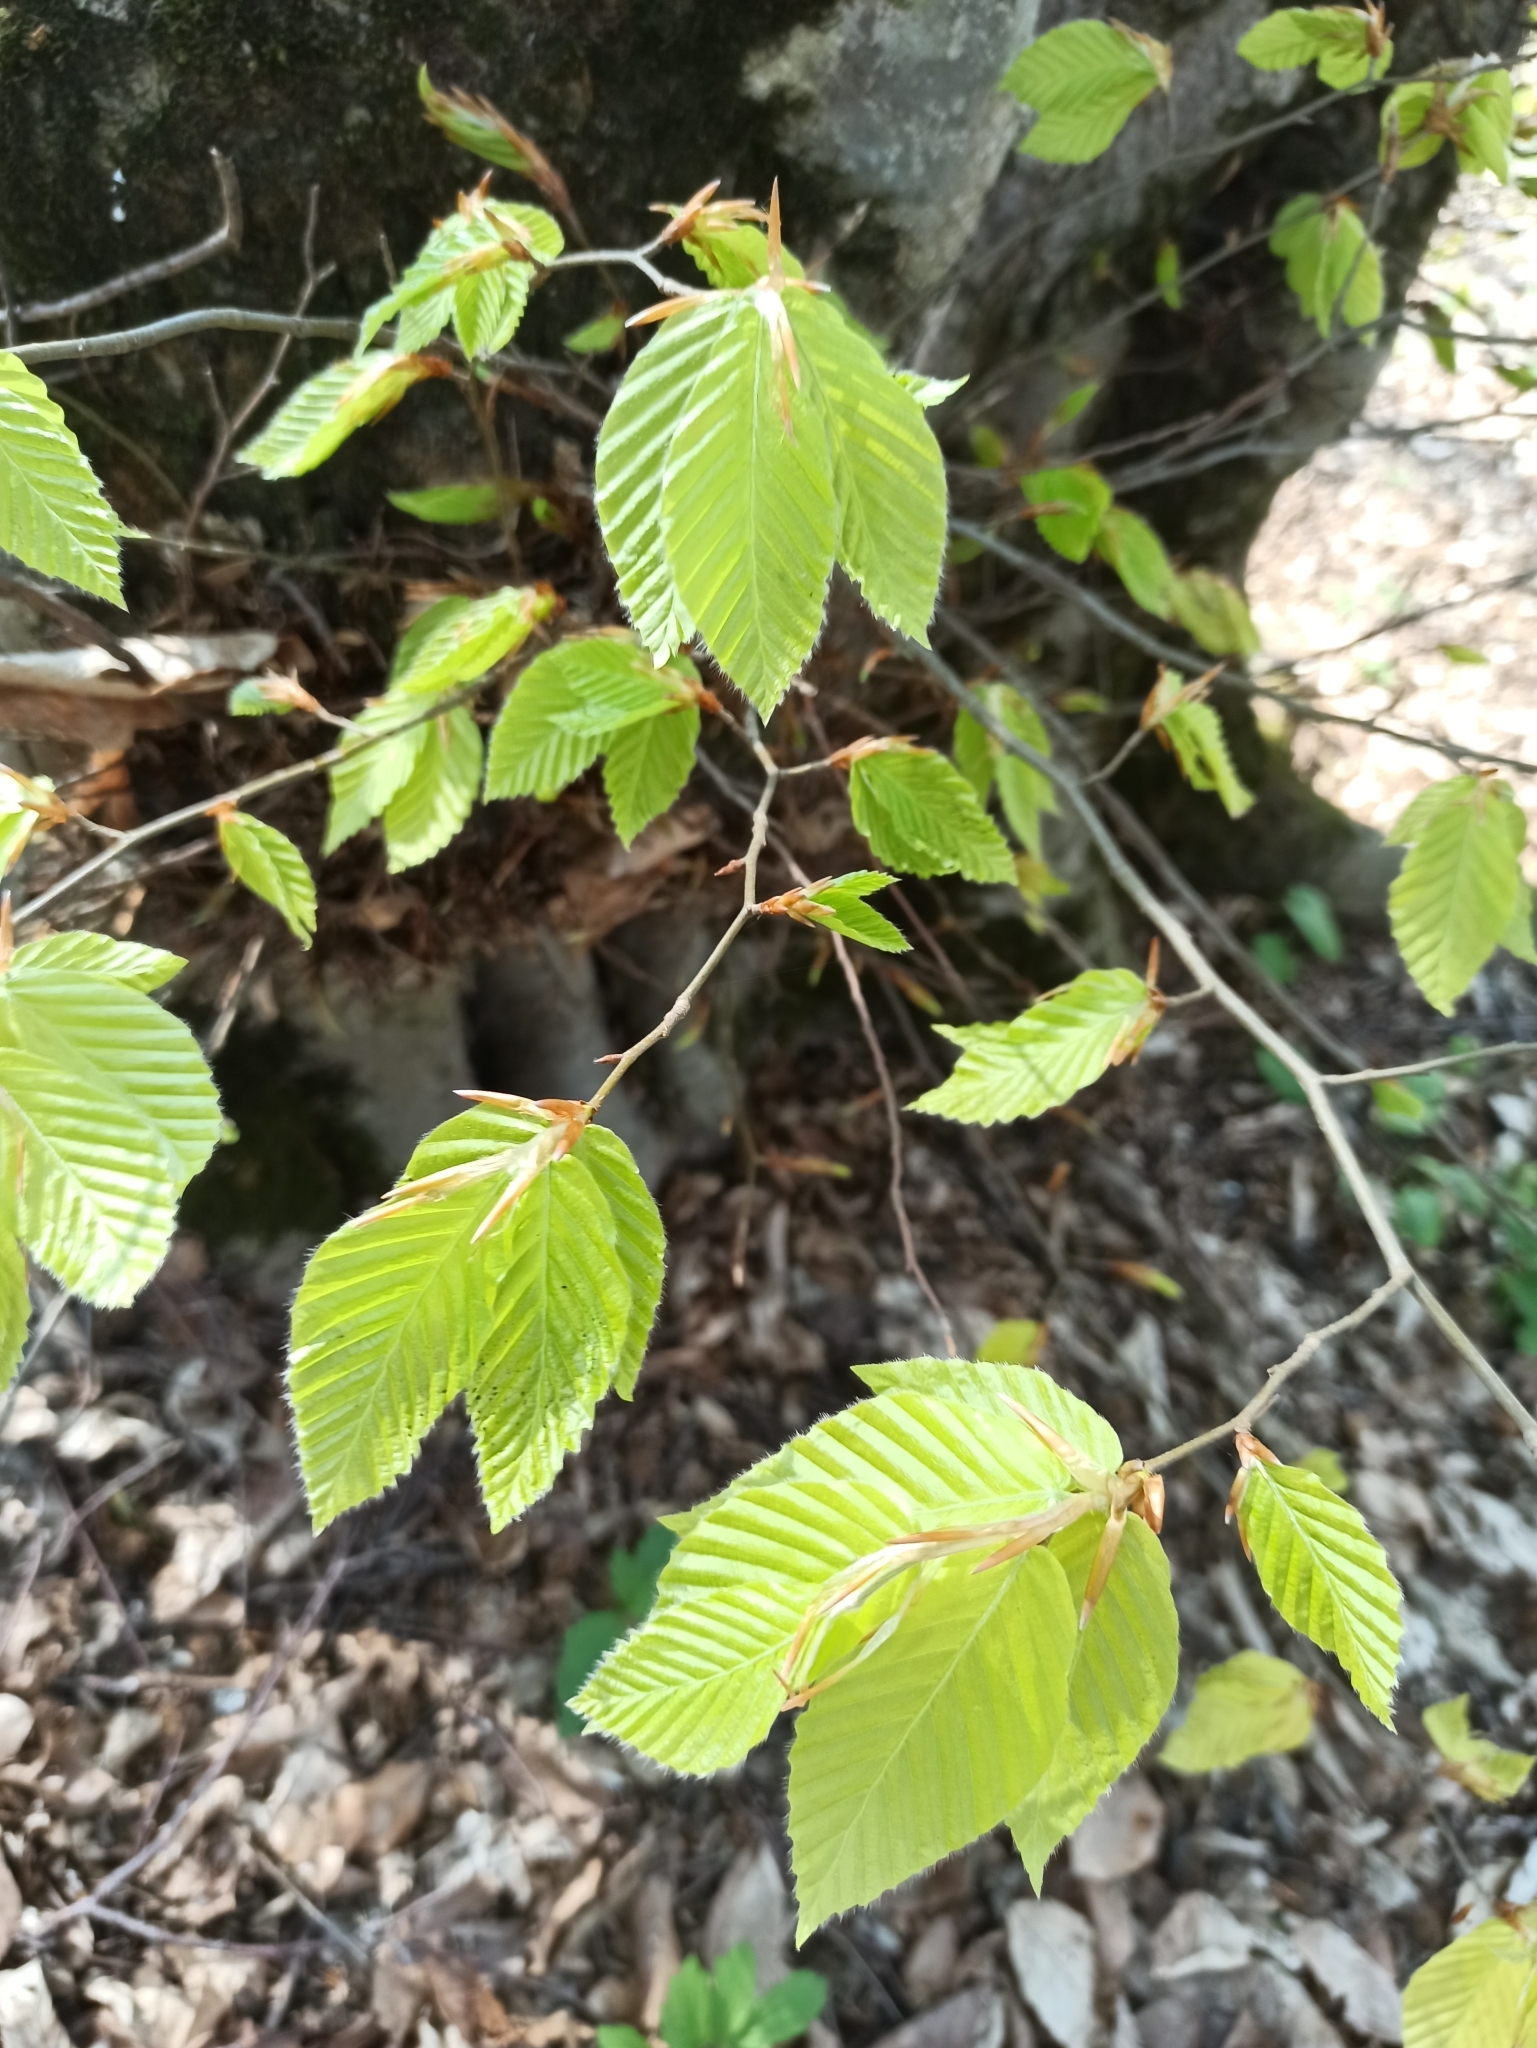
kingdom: Plantae
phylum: Tracheophyta
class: Magnoliopsida
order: Fagales
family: Betulaceae
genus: Carpinus
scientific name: Carpinus betulus
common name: Hornbeam
